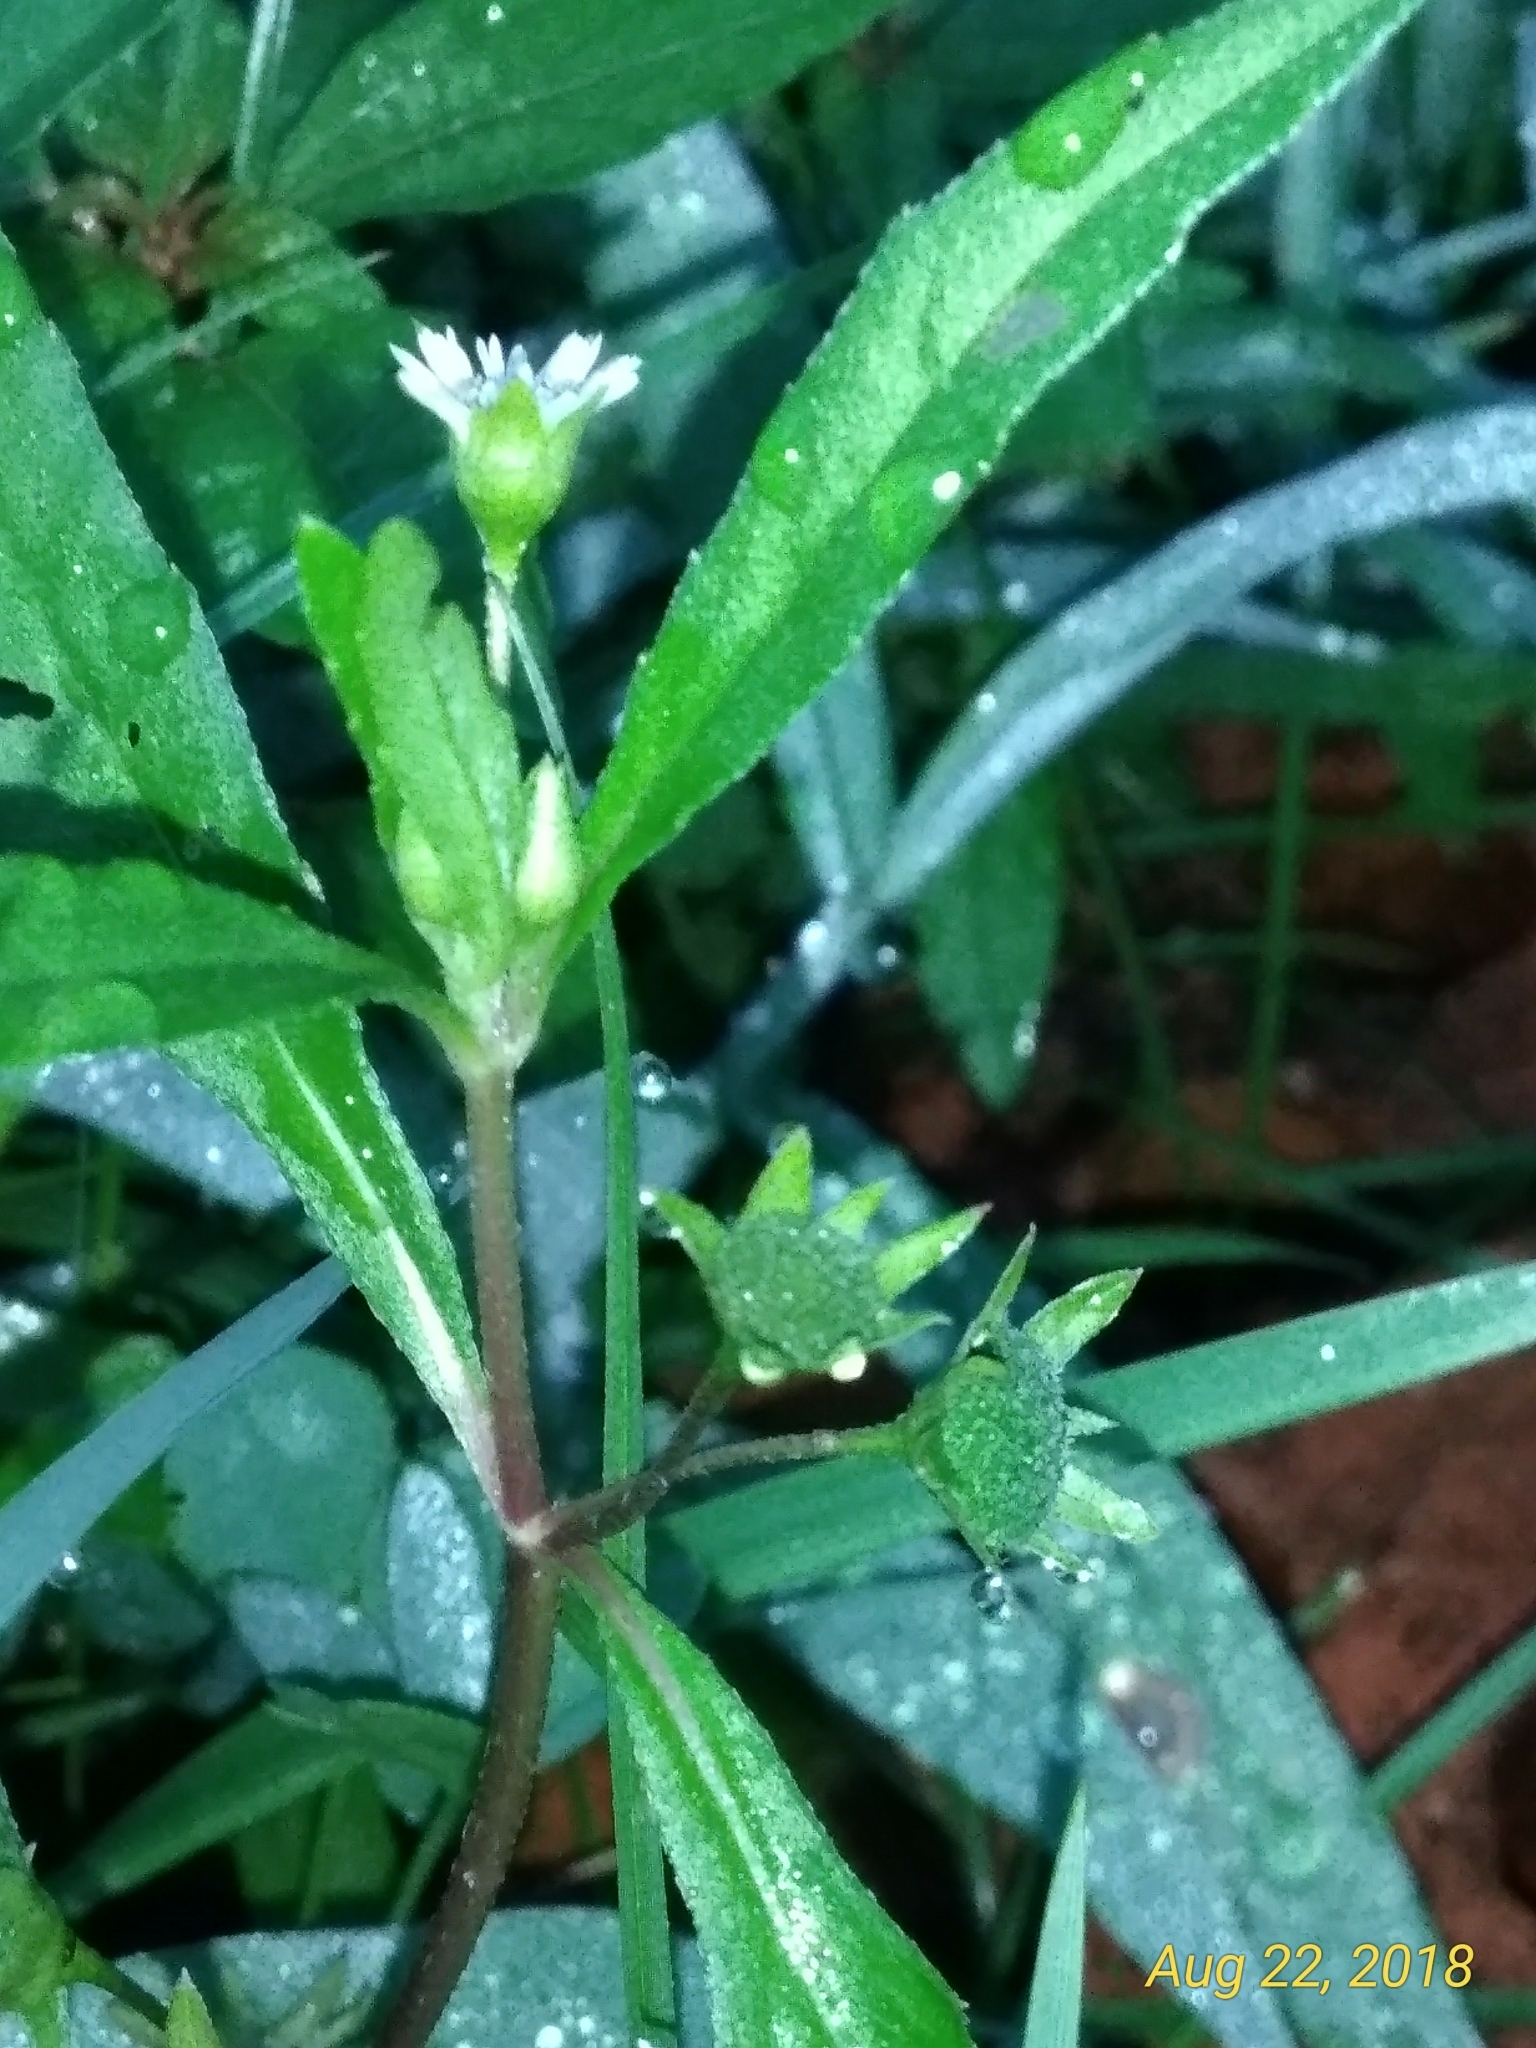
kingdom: Plantae
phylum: Tracheophyta
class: Magnoliopsida
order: Asterales
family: Asteraceae
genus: Eclipta
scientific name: Eclipta prostrata
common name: False daisy
